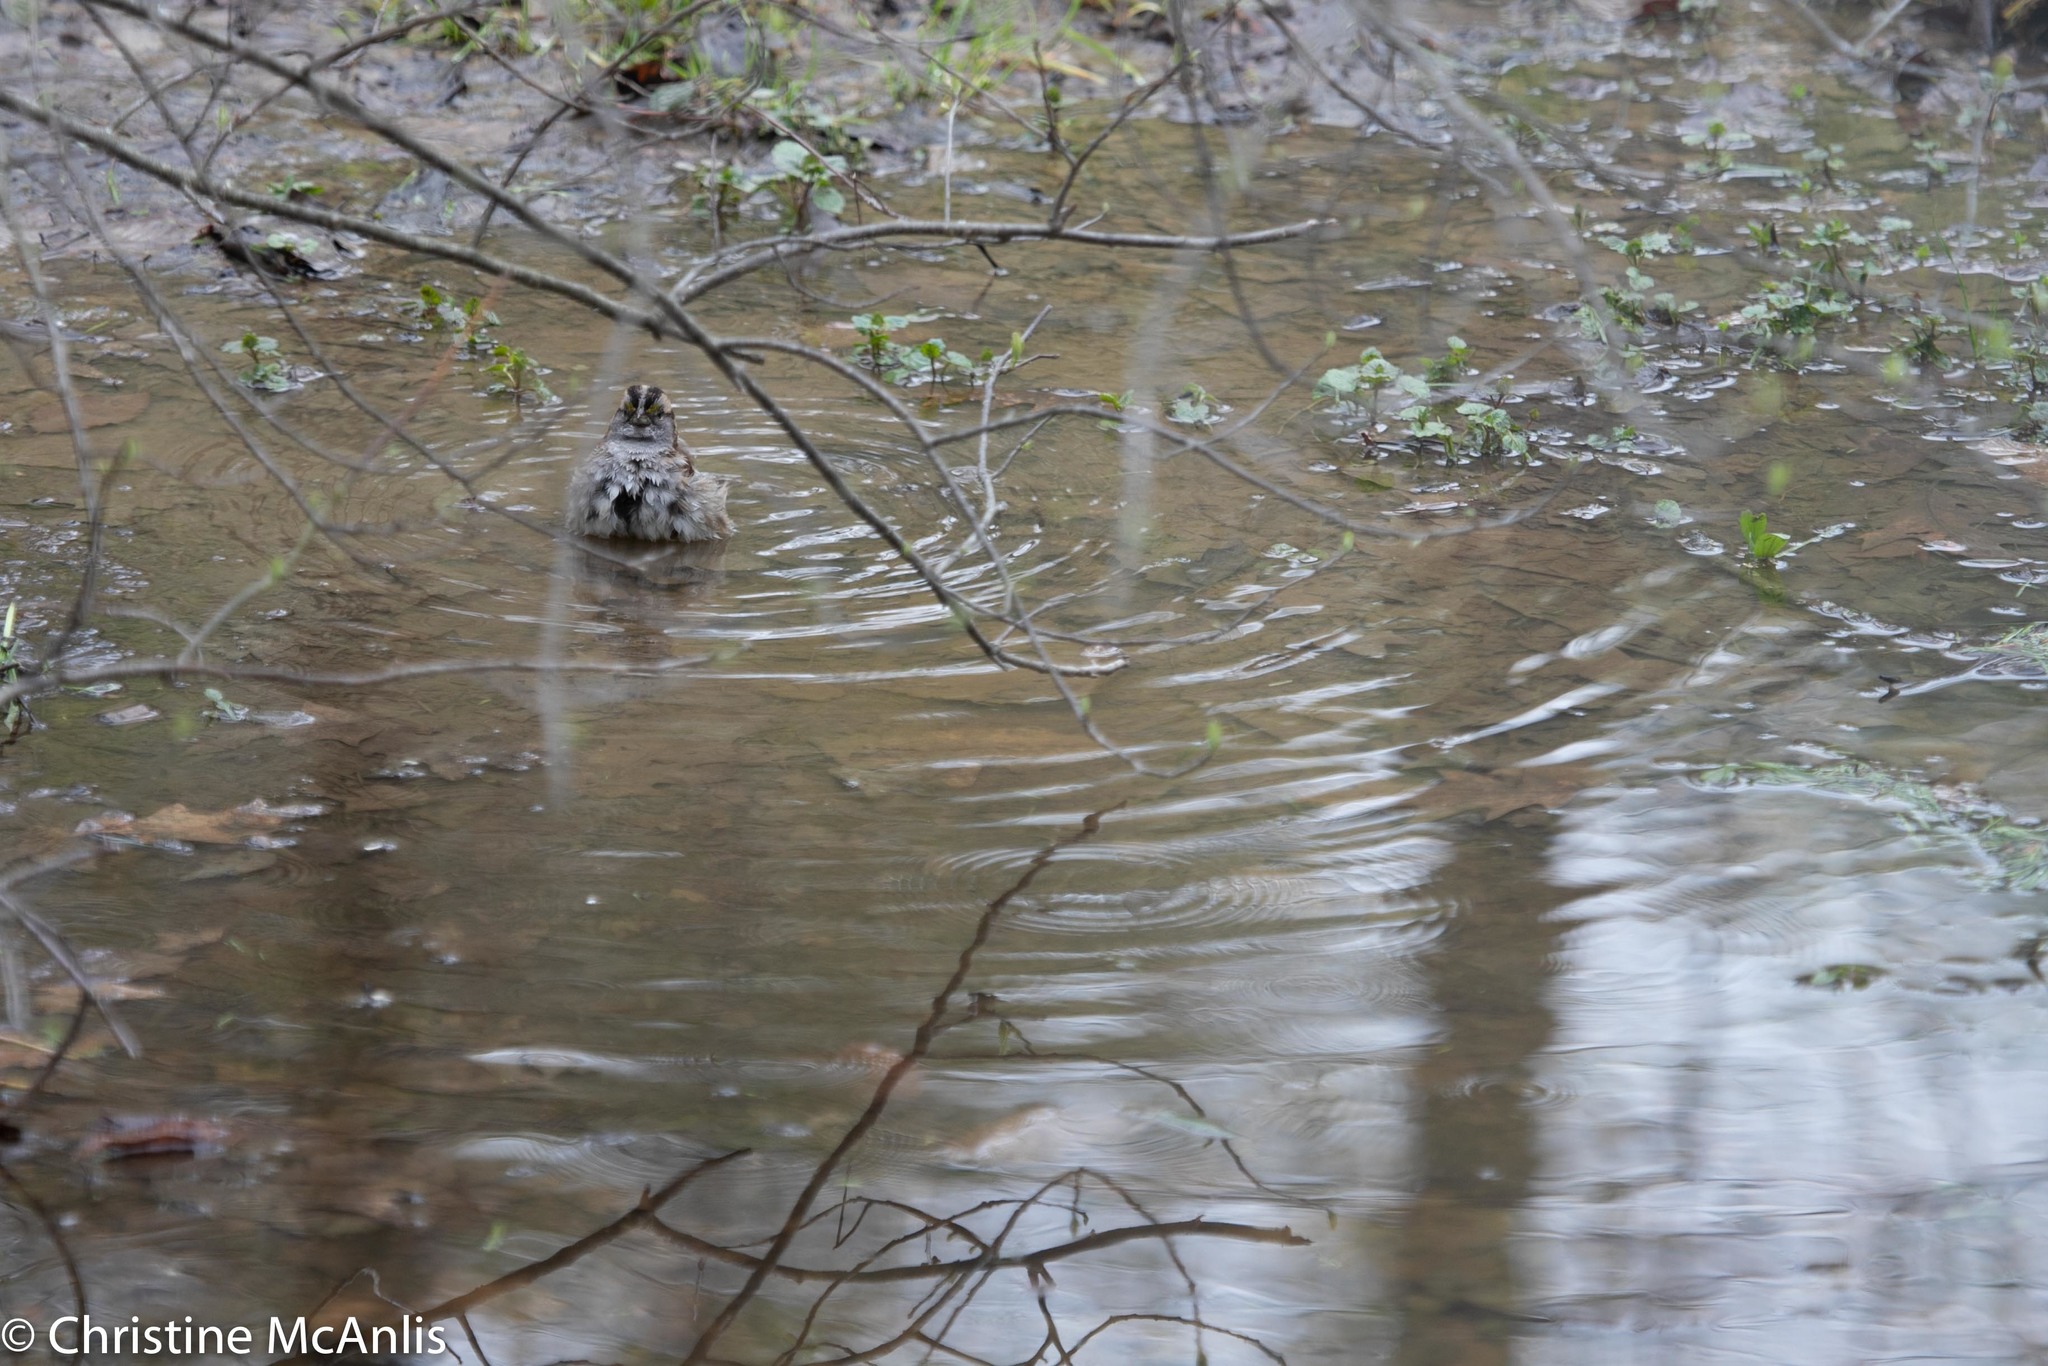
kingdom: Animalia
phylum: Chordata
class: Aves
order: Passeriformes
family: Passerellidae
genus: Zonotrichia
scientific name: Zonotrichia albicollis
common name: White-throated sparrow
